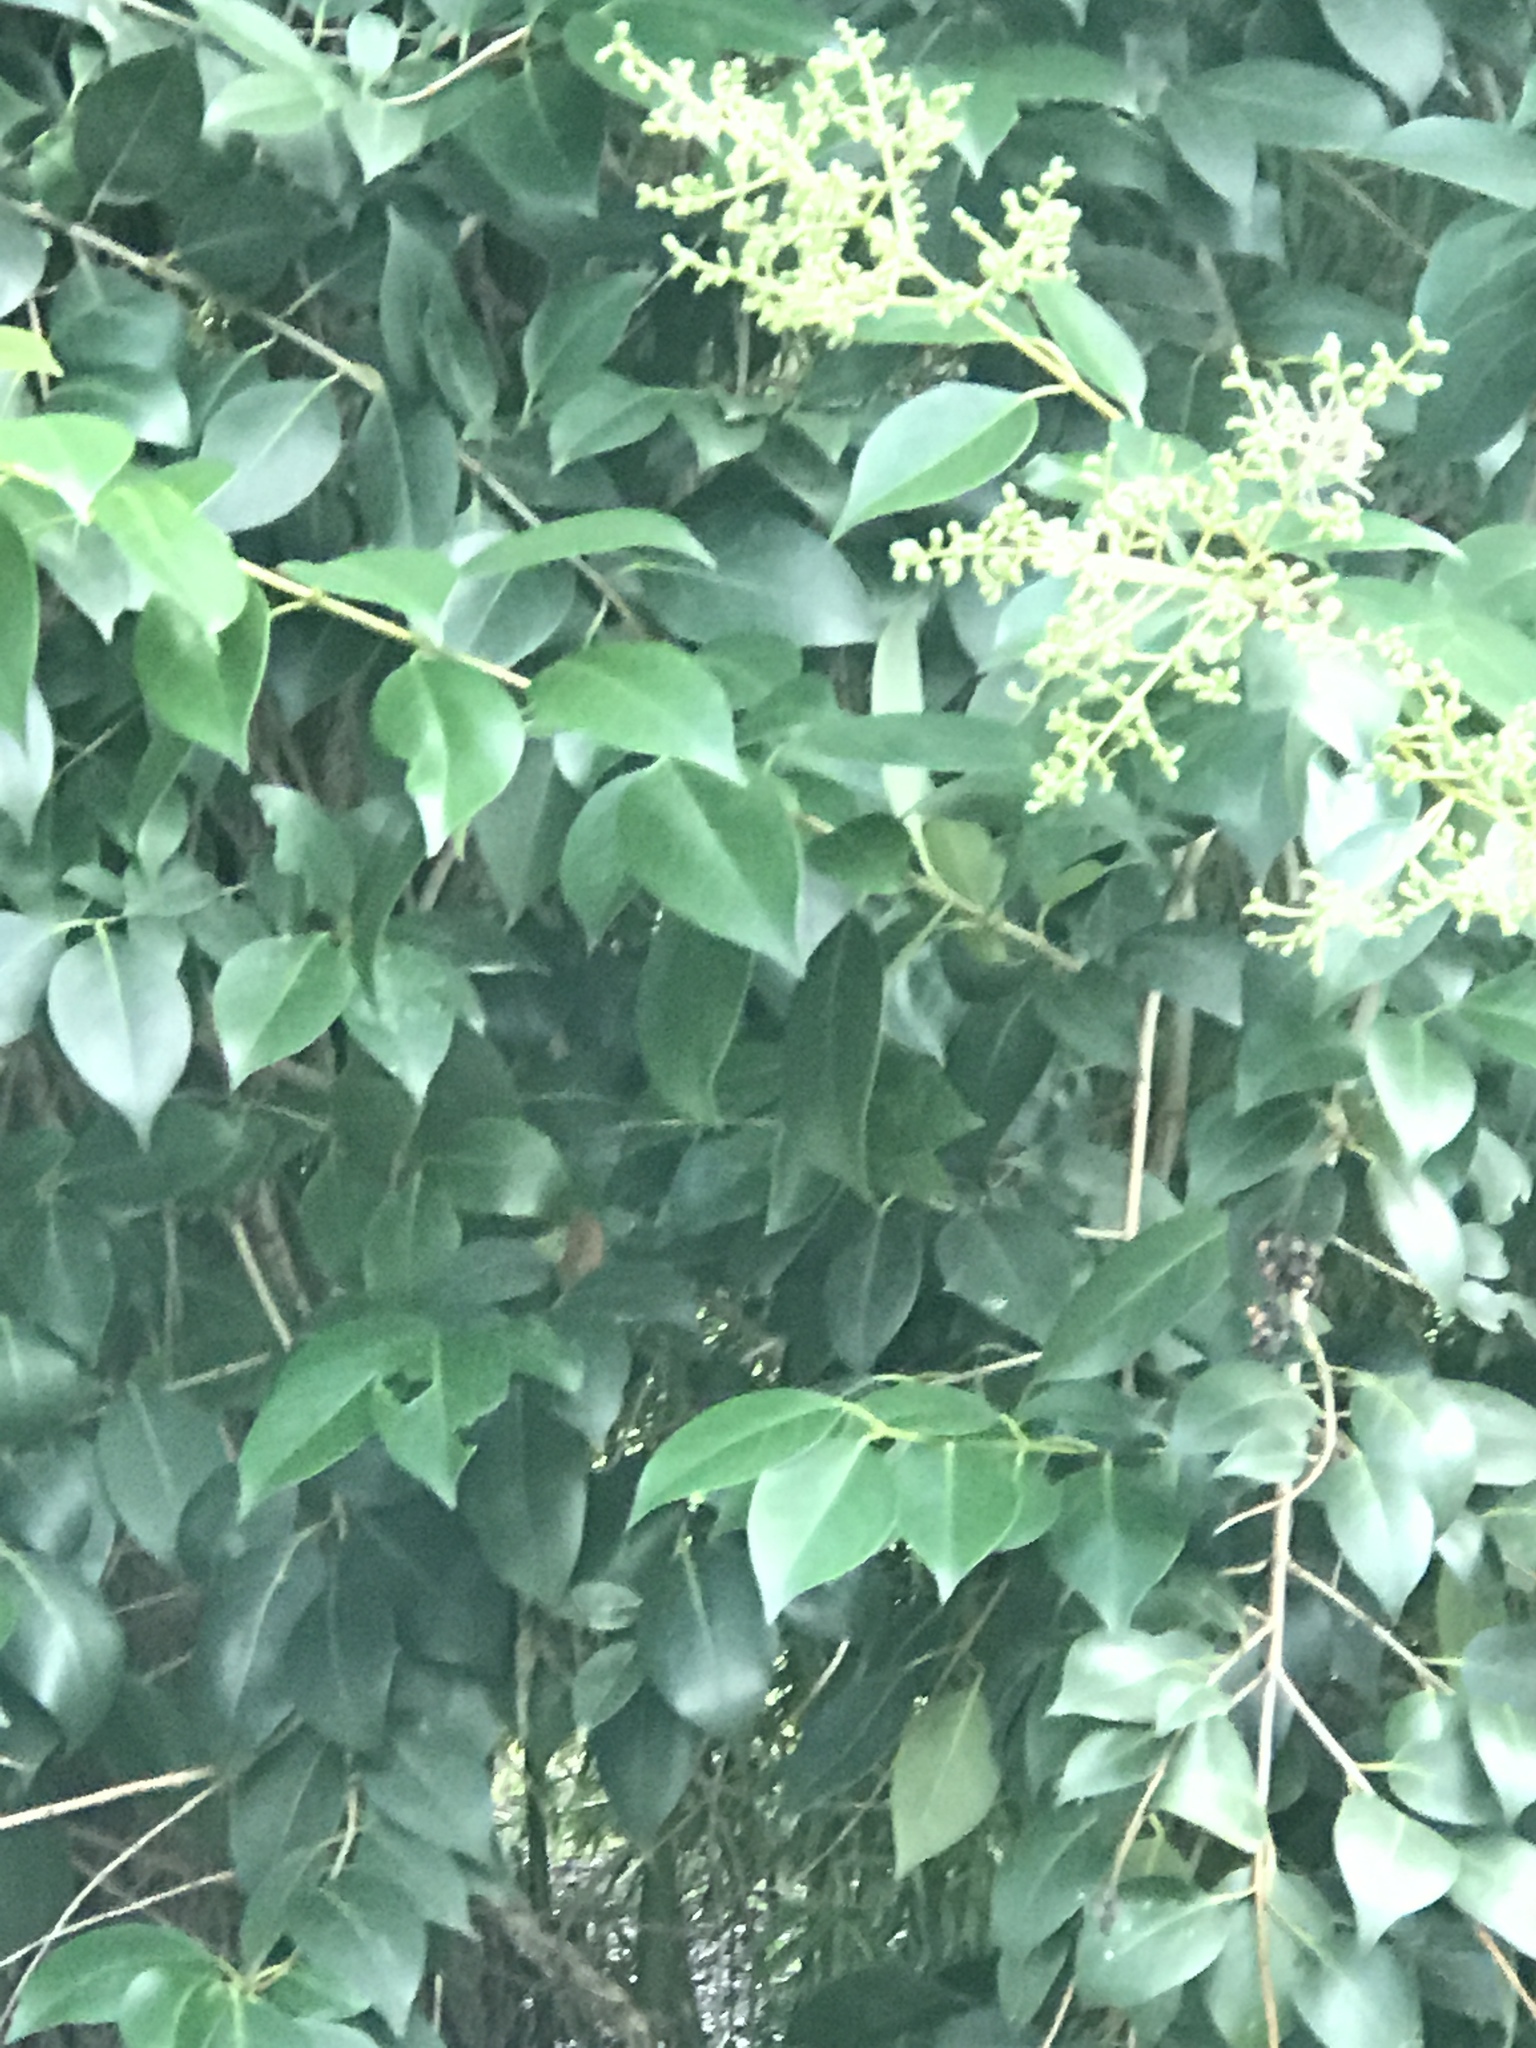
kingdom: Plantae
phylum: Tracheophyta
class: Magnoliopsida
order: Lamiales
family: Oleaceae
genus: Ligustrum
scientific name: Ligustrum lucidum
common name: Glossy privet
